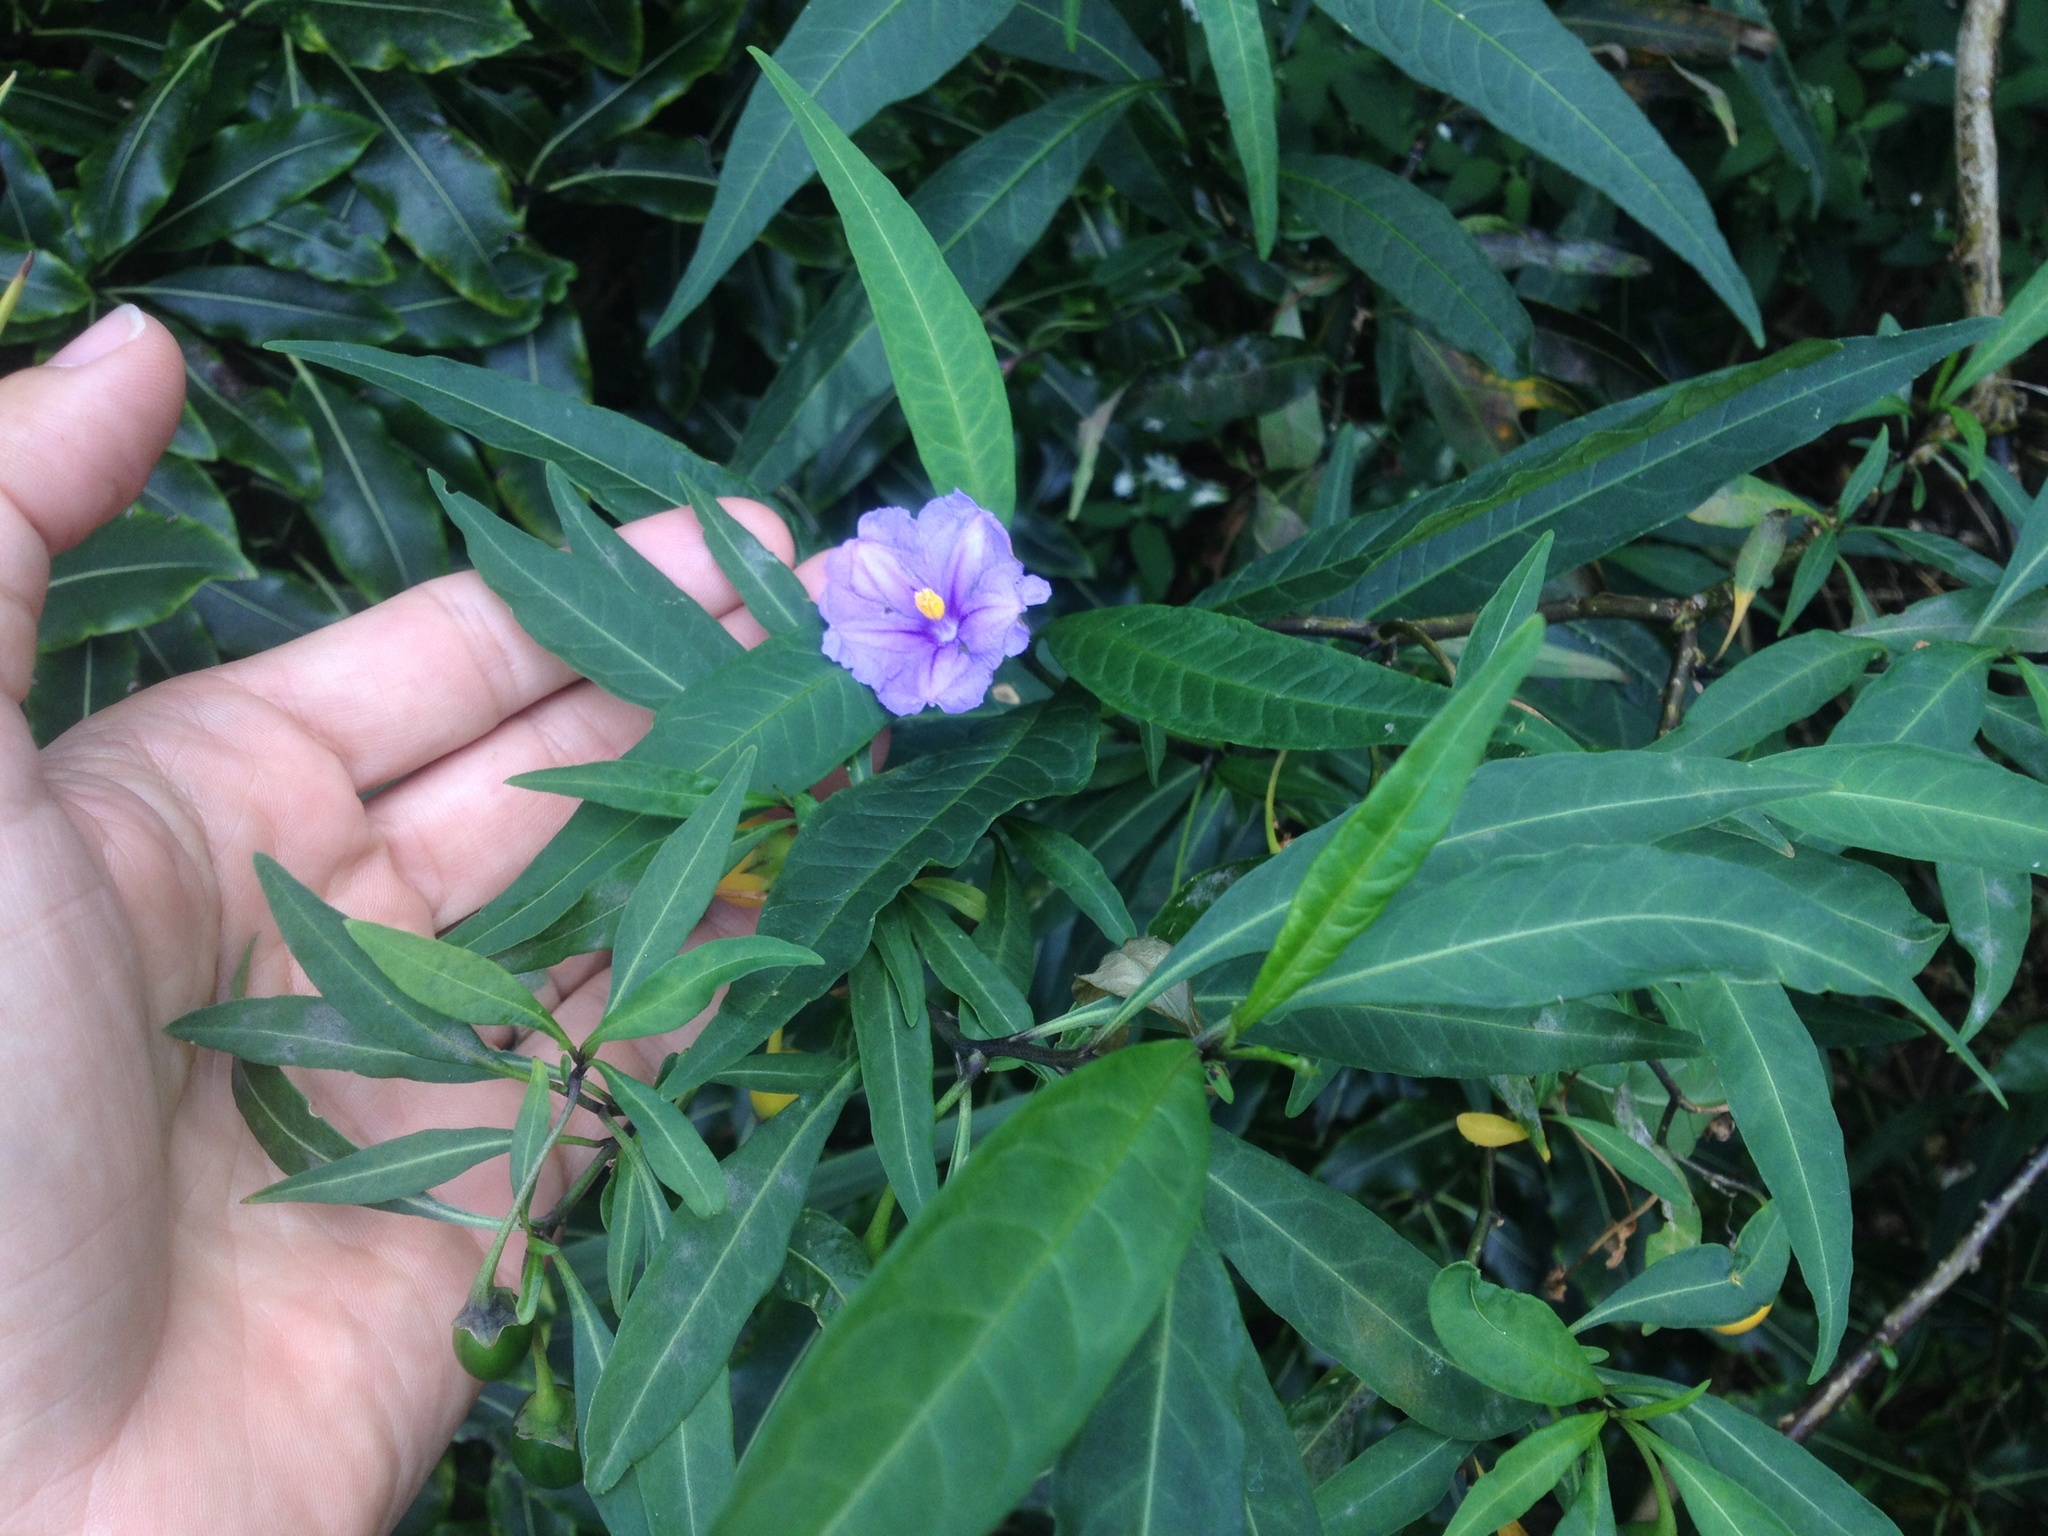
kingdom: Plantae
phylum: Tracheophyta
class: Magnoliopsida
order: Solanales
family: Solanaceae
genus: Solanum
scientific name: Solanum laciniatum
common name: Kangaroo-apple
